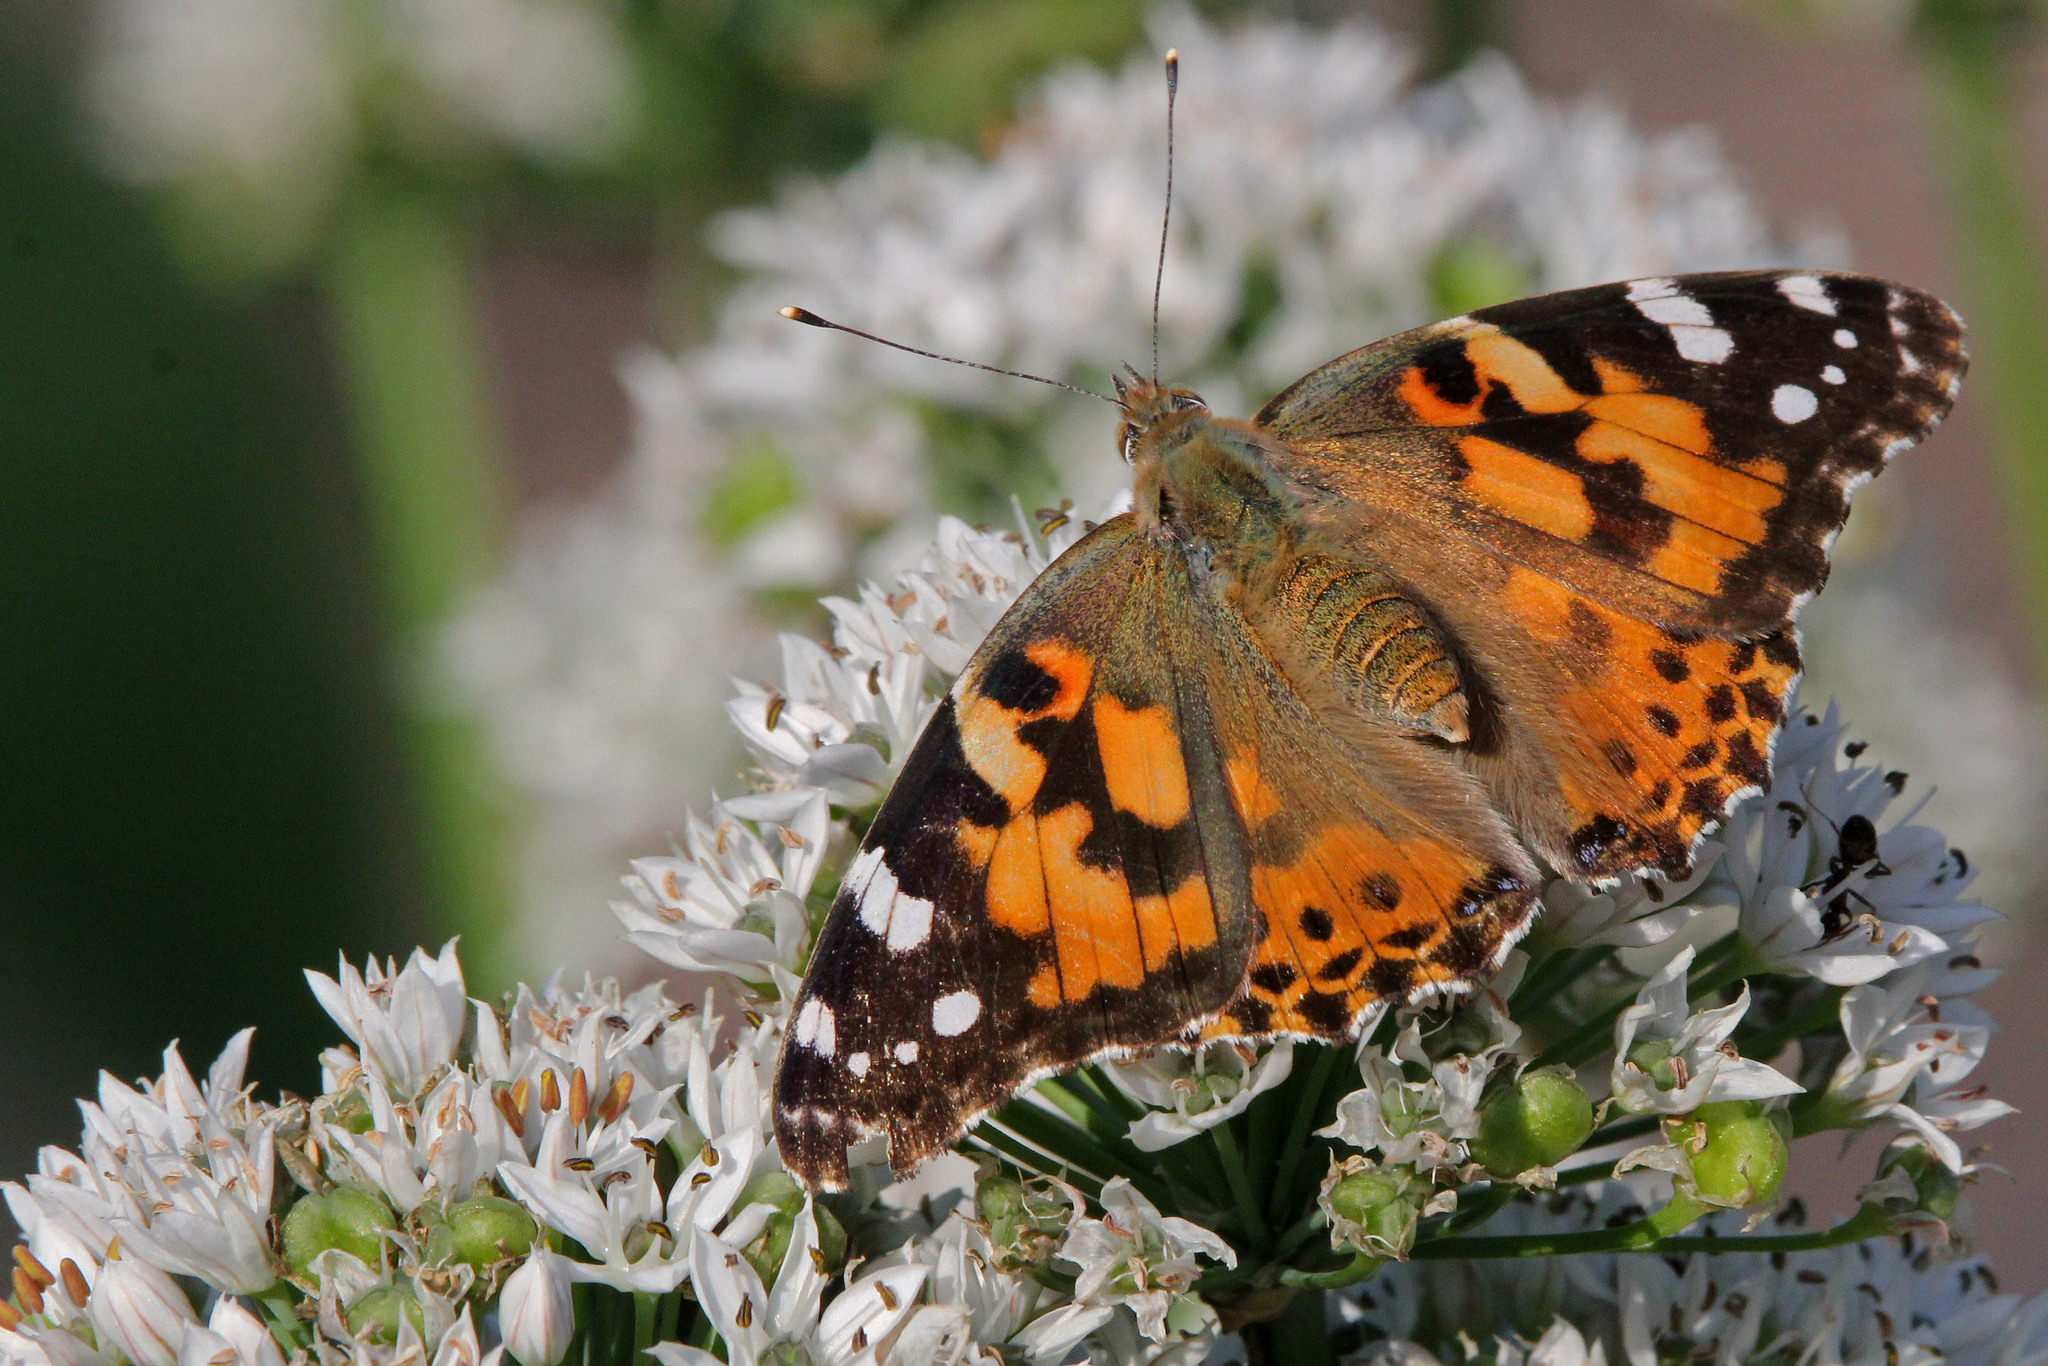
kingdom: Animalia
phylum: Arthropoda
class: Insecta
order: Lepidoptera
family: Nymphalidae
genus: Vanessa
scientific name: Vanessa cardui
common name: Painted lady
